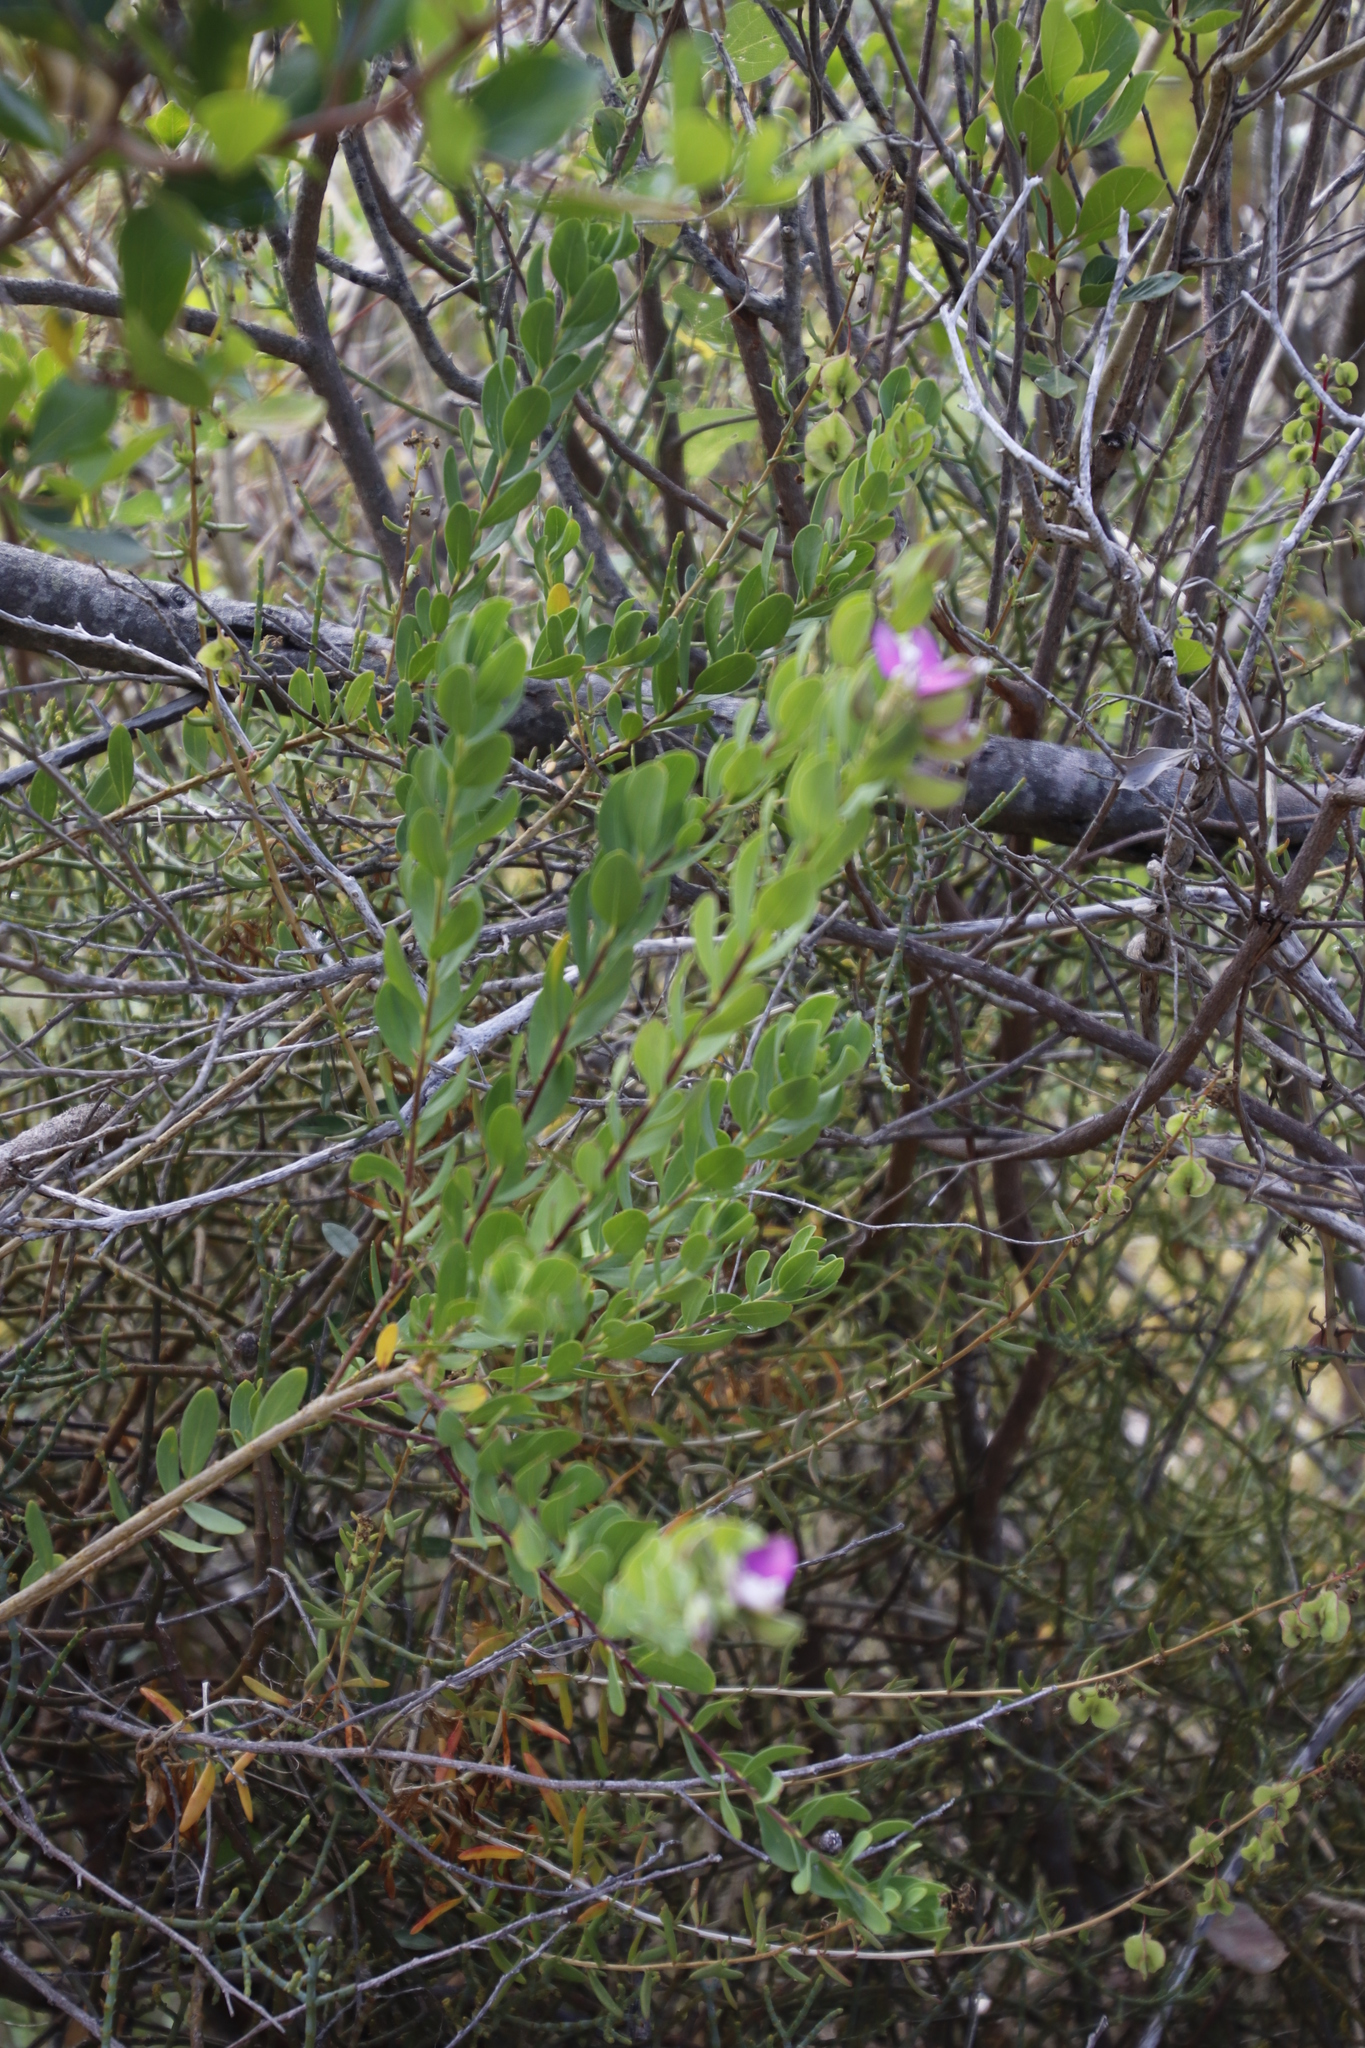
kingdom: Plantae
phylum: Tracheophyta
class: Magnoliopsida
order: Fabales
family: Polygalaceae
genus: Polygala
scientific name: Polygala myrtifolia
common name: Myrtle-leaf milkwort
